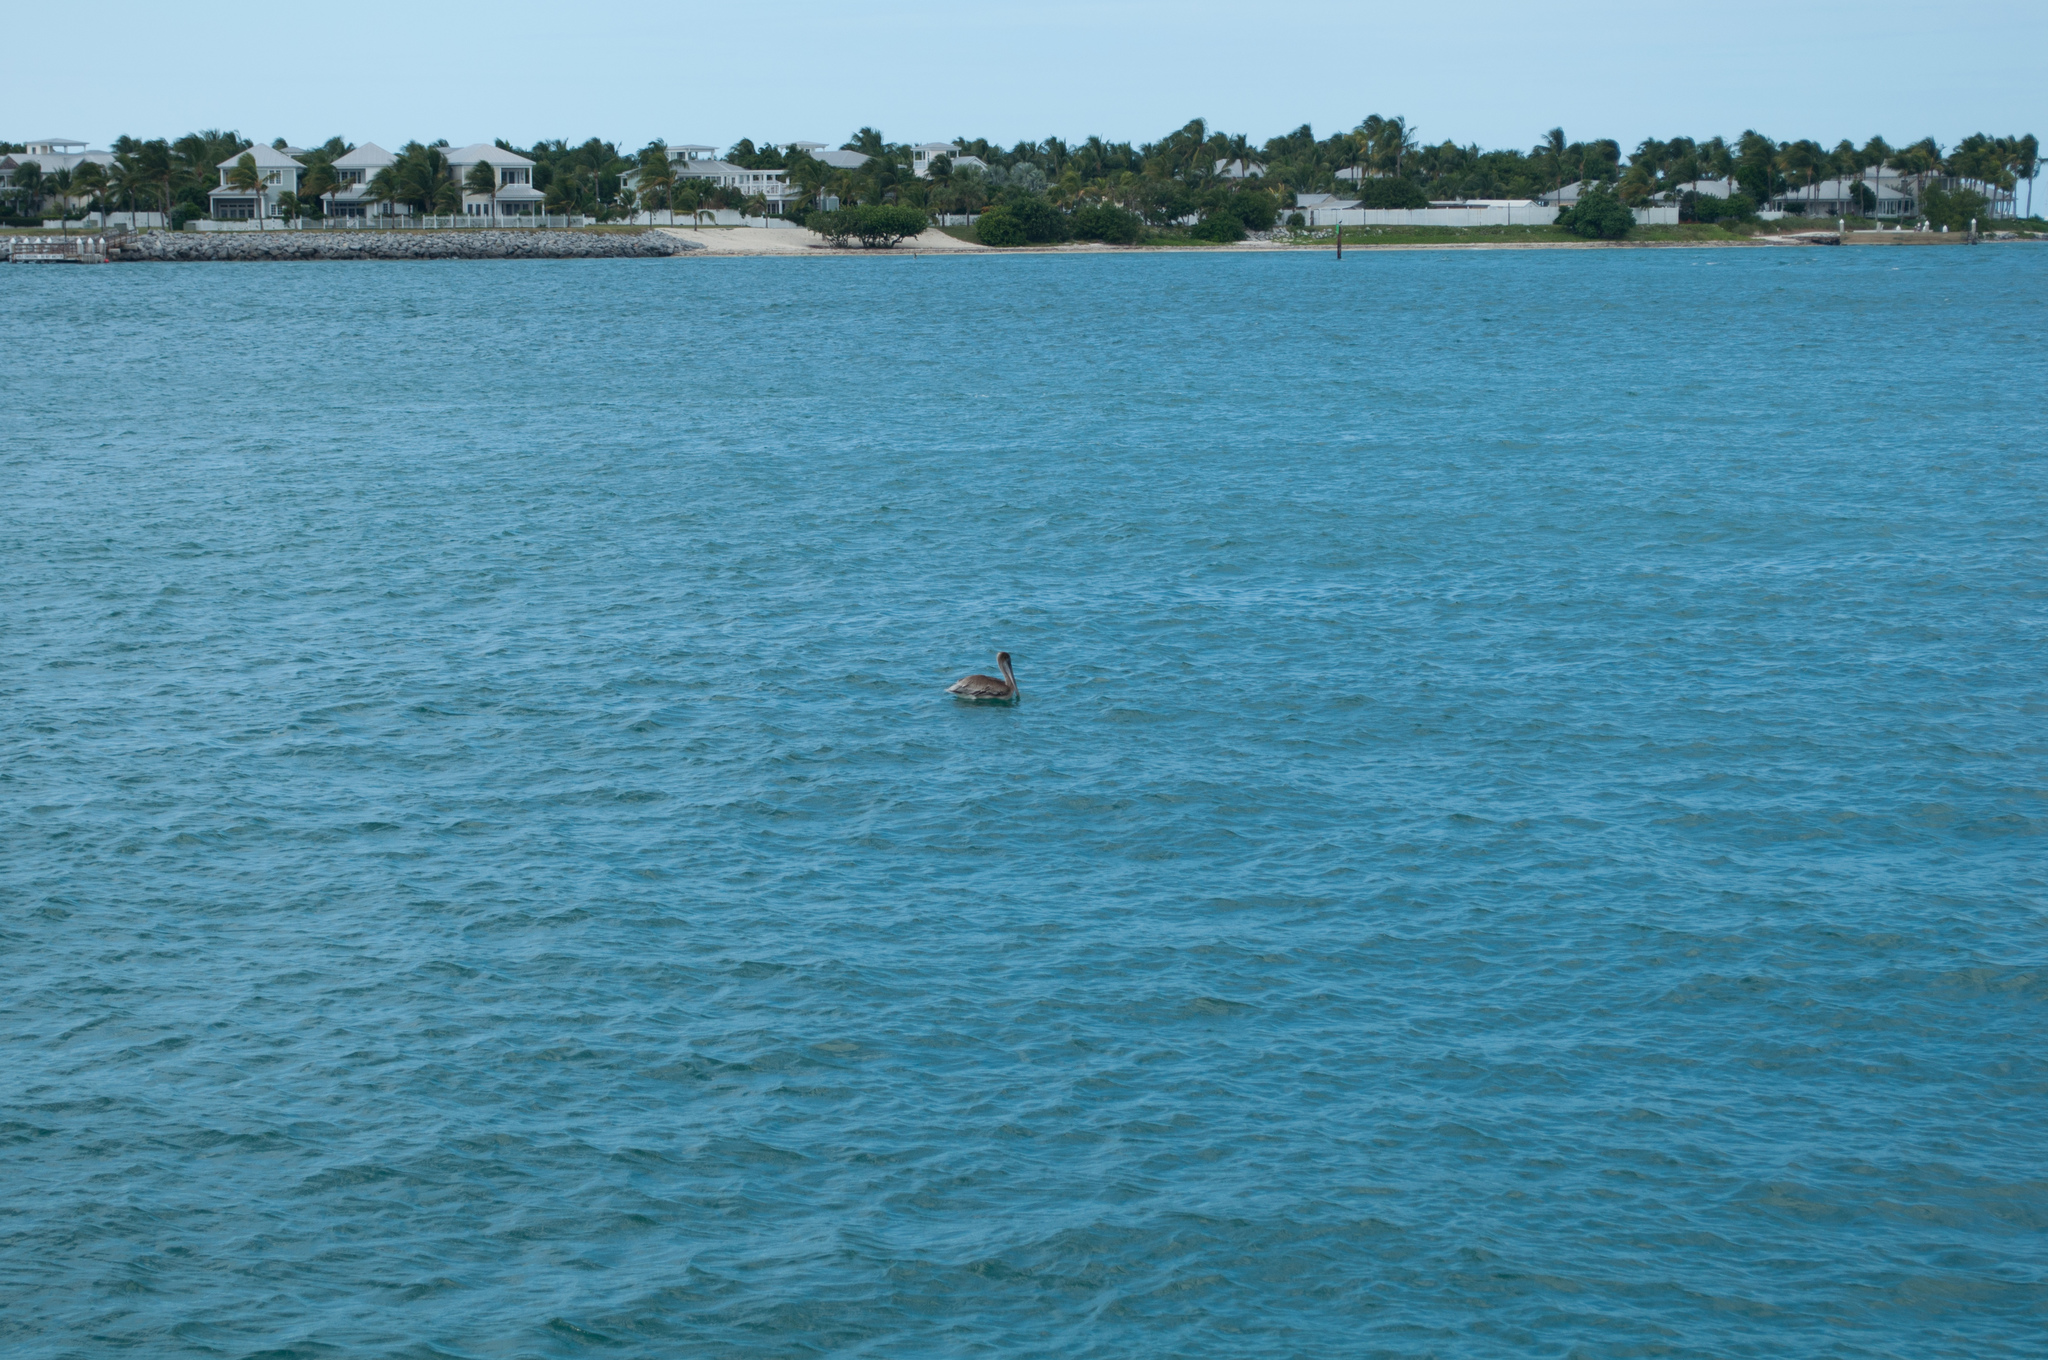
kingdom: Animalia
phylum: Chordata
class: Aves
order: Pelecaniformes
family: Pelecanidae
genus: Pelecanus
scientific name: Pelecanus occidentalis
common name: Brown pelican
